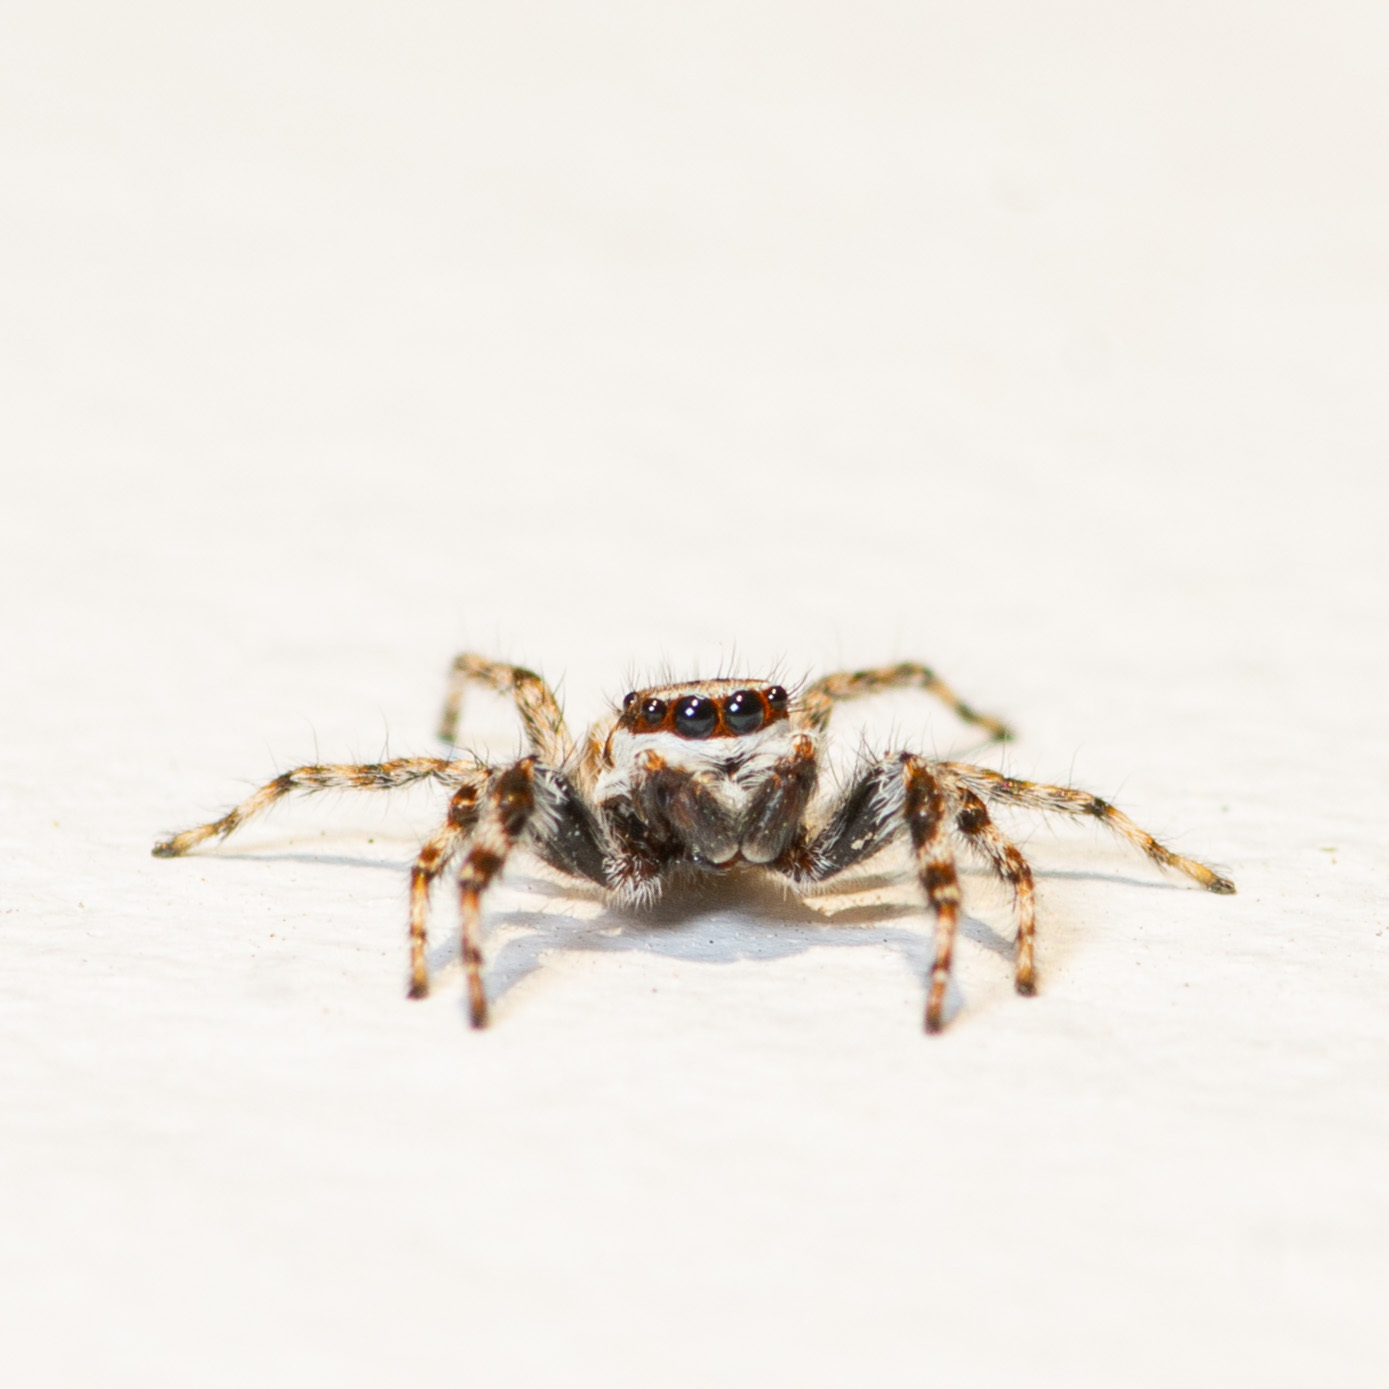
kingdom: Animalia
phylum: Arthropoda
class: Arachnida
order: Araneae
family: Salticidae
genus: Menemerus
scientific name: Menemerus bivittatus
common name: Gray wall jumper
